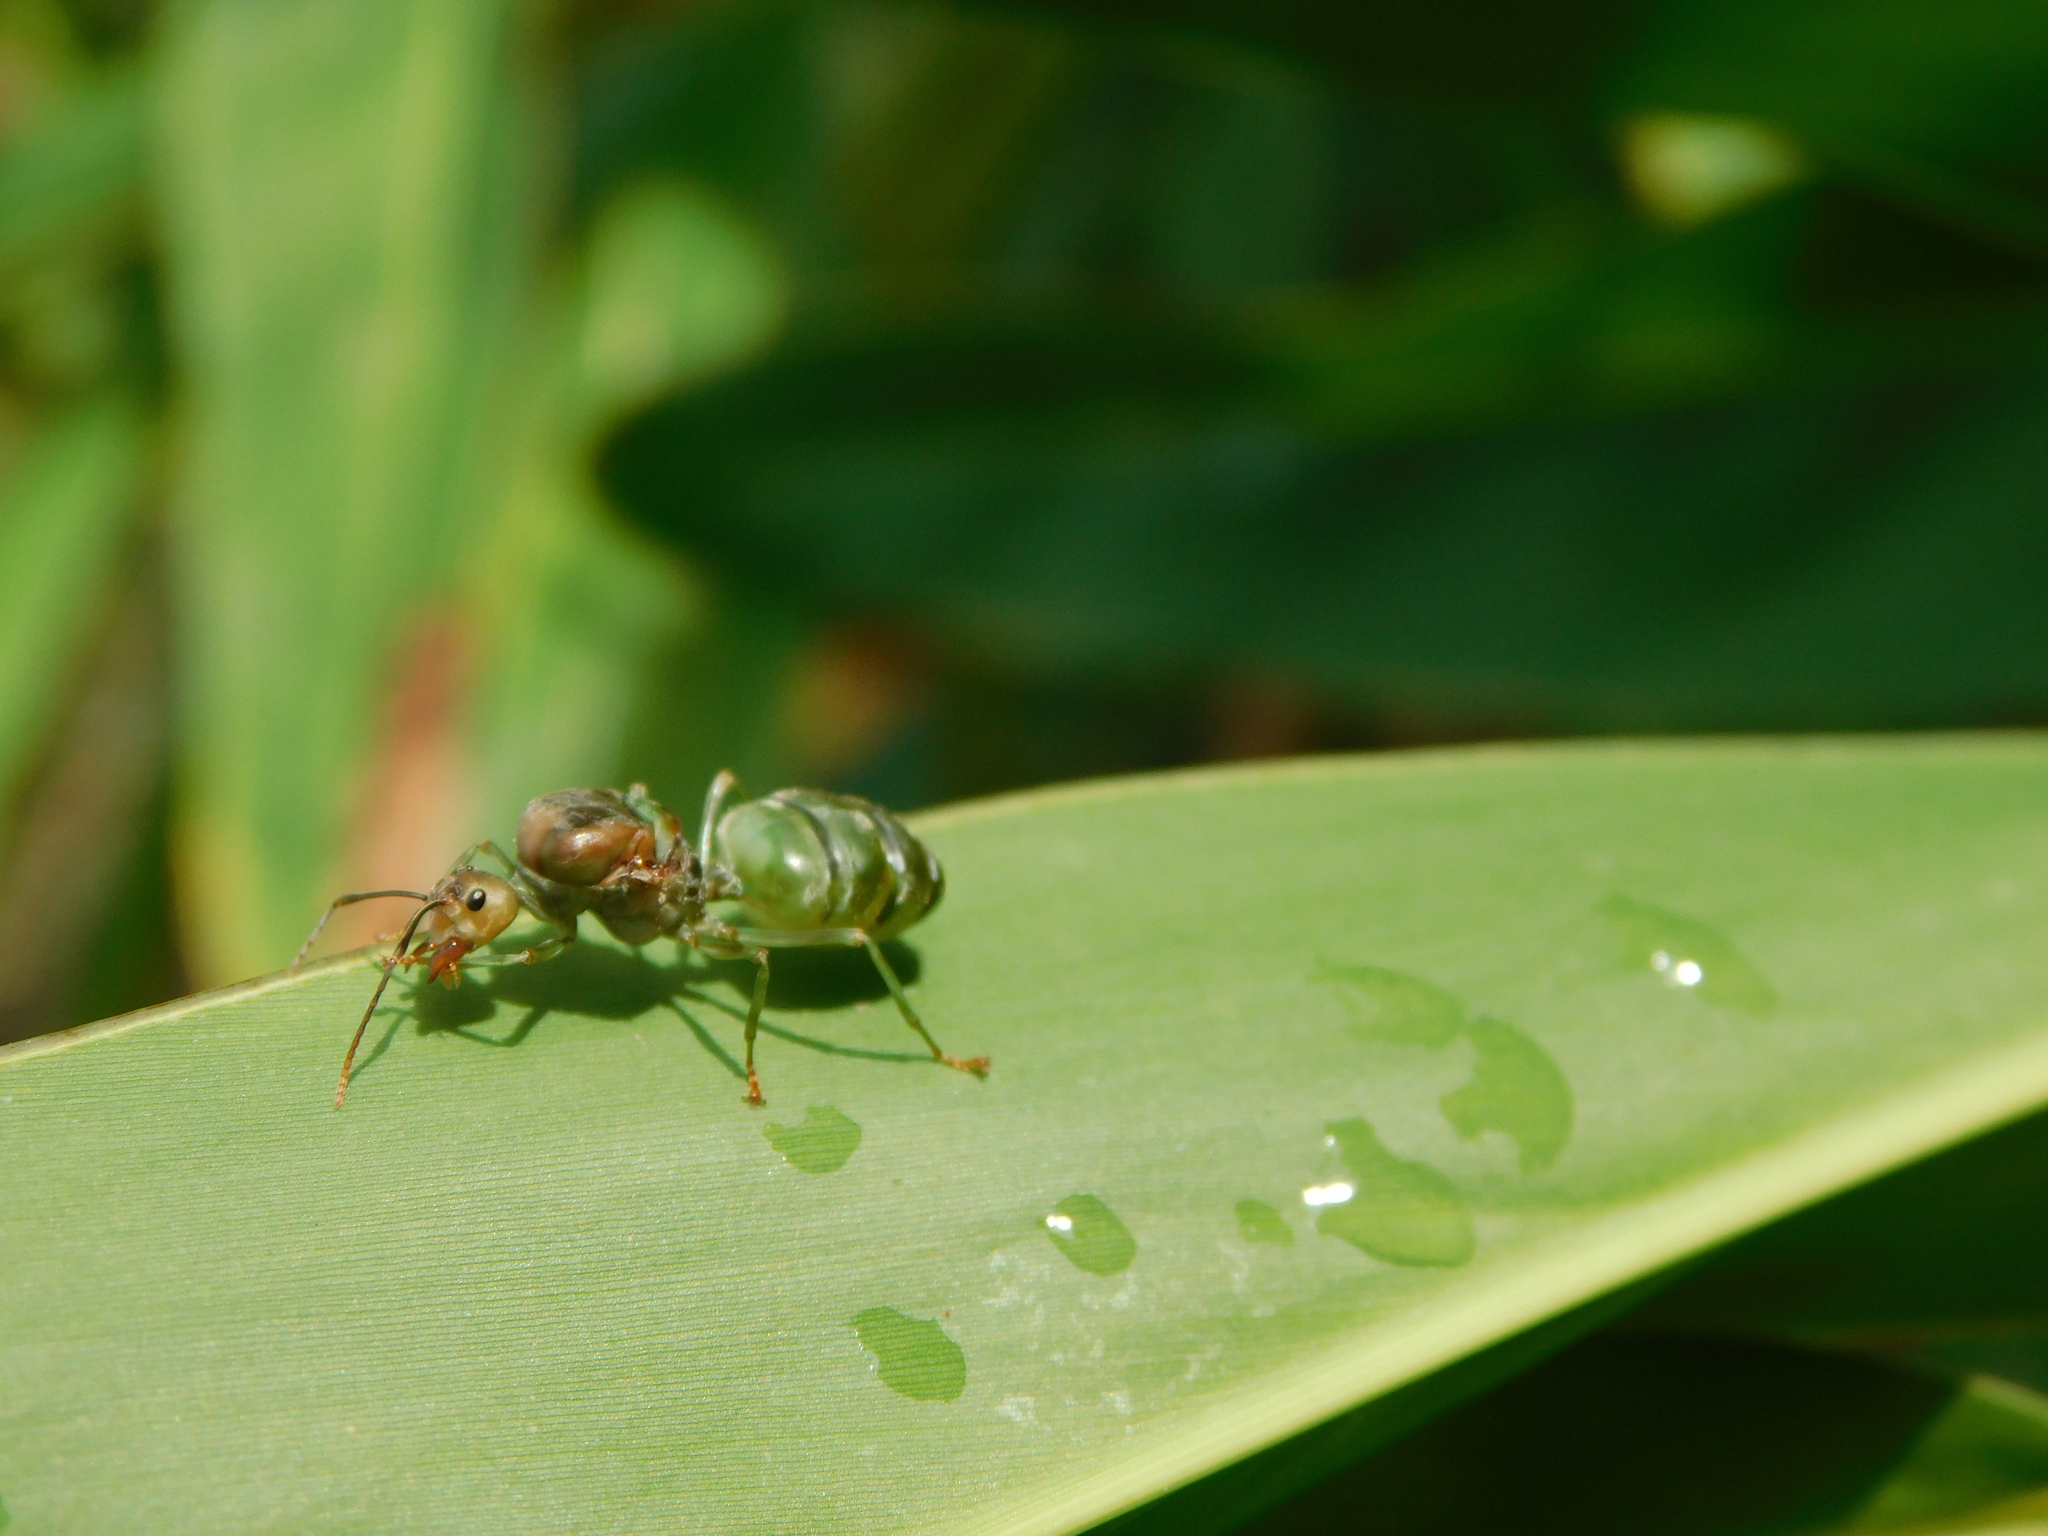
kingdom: Animalia
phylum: Arthropoda
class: Insecta
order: Hymenoptera
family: Formicidae
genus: Oecophylla
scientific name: Oecophylla smaragdina
